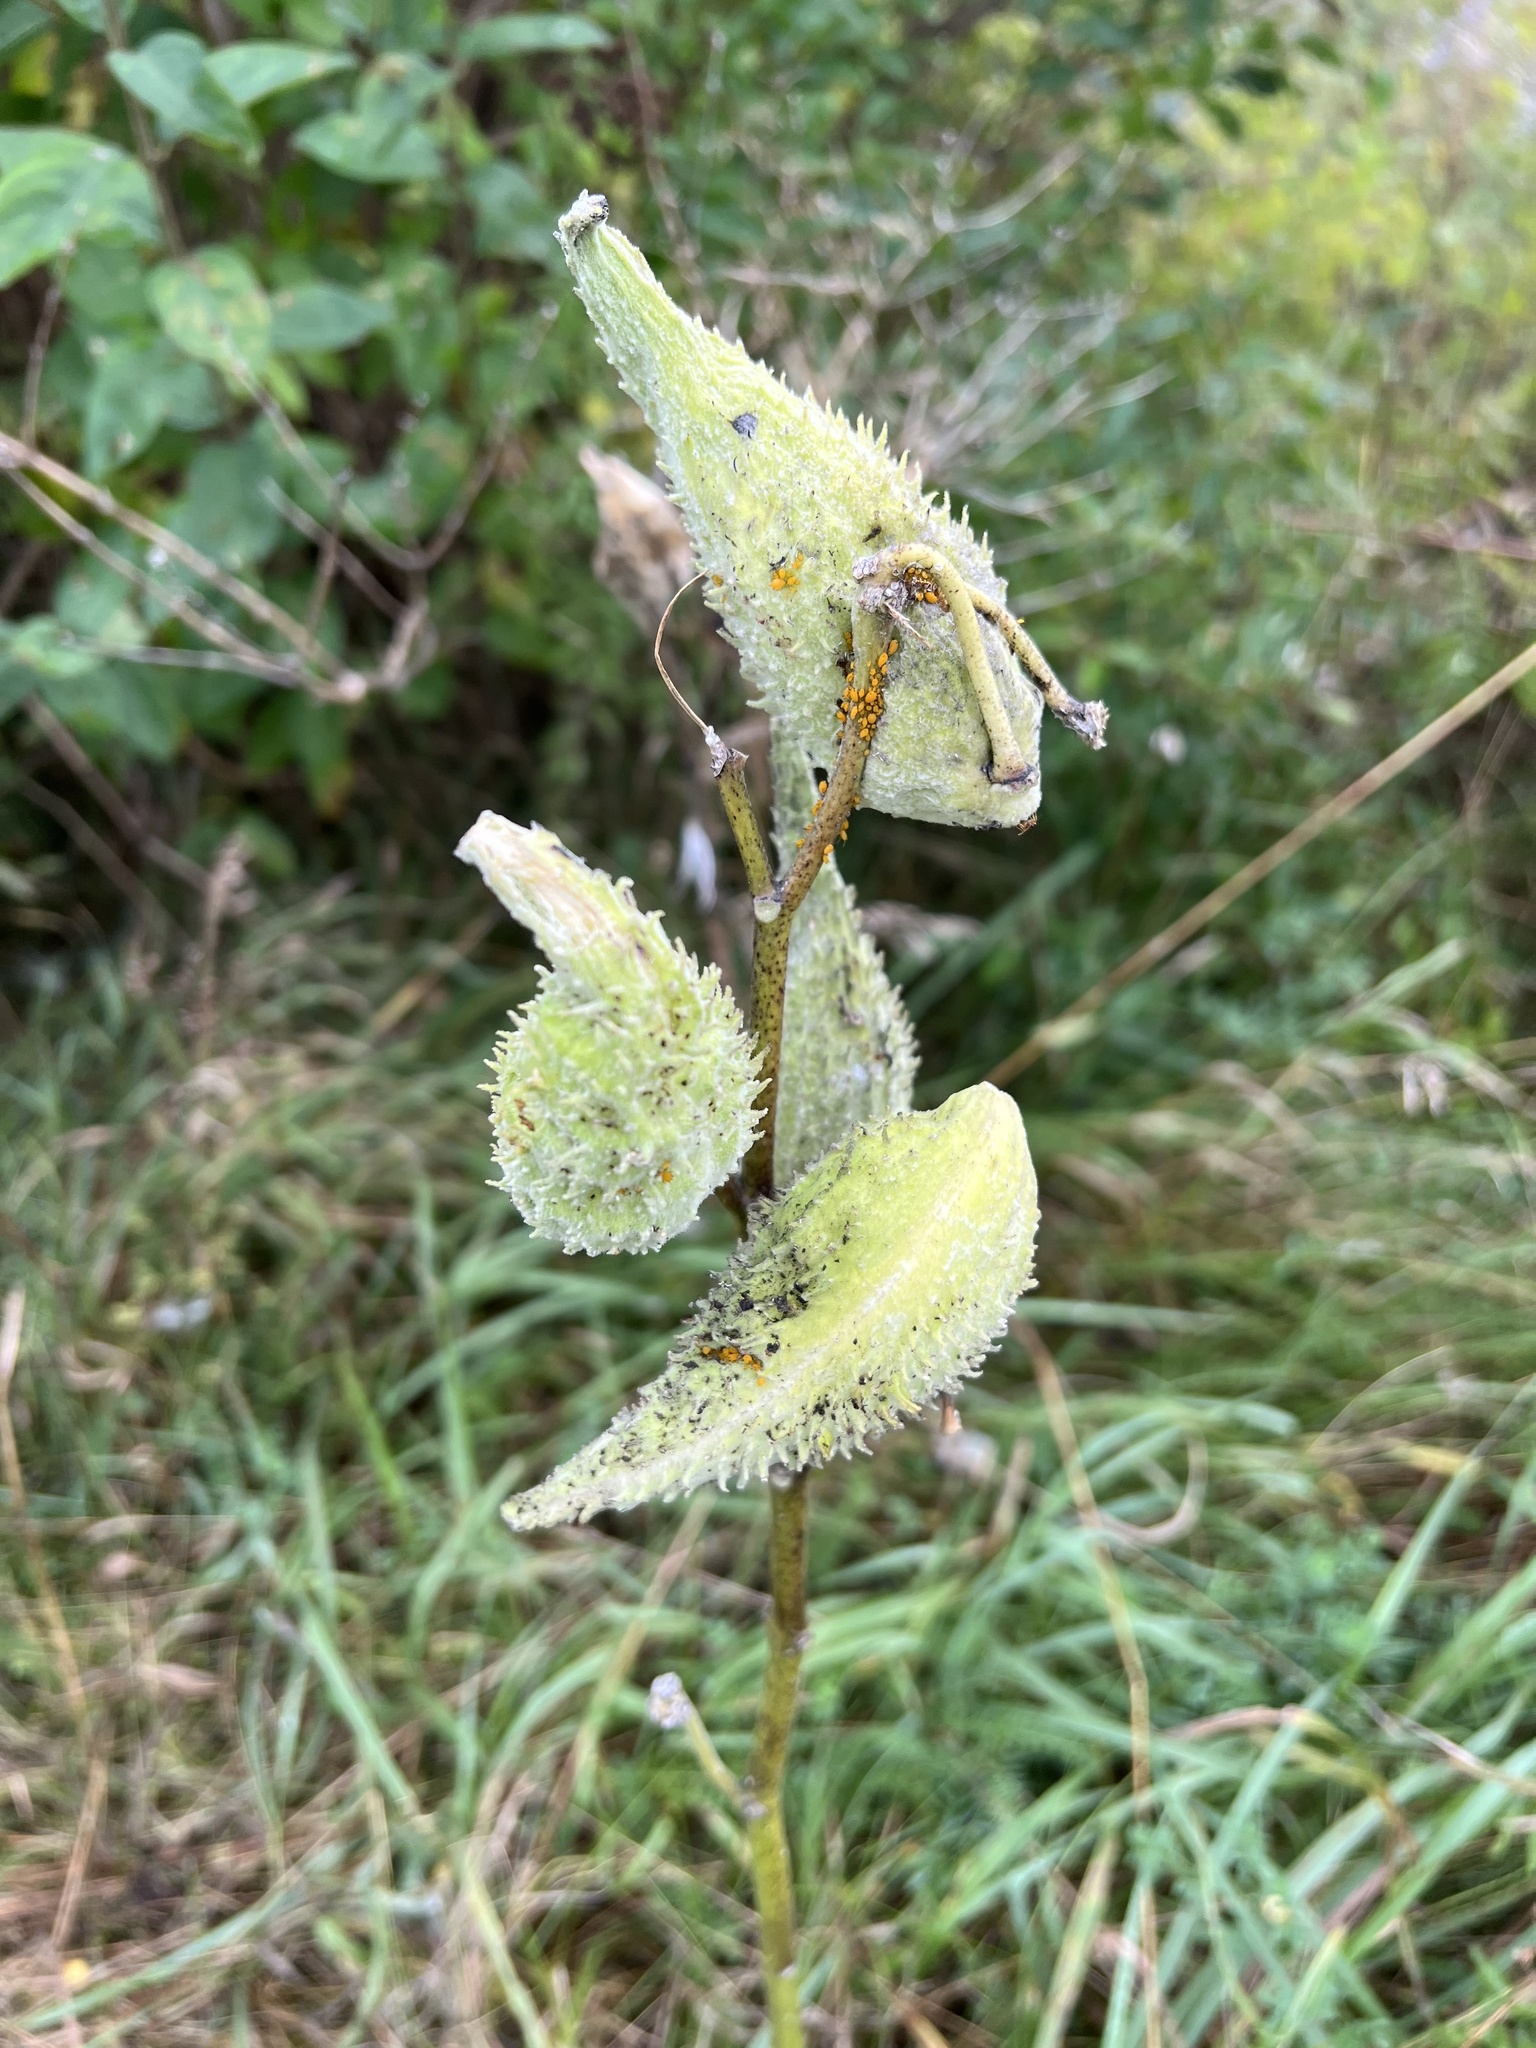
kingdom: Plantae
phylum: Tracheophyta
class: Magnoliopsida
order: Gentianales
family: Apocynaceae
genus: Asclepias
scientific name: Asclepias syriaca
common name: Common milkweed
